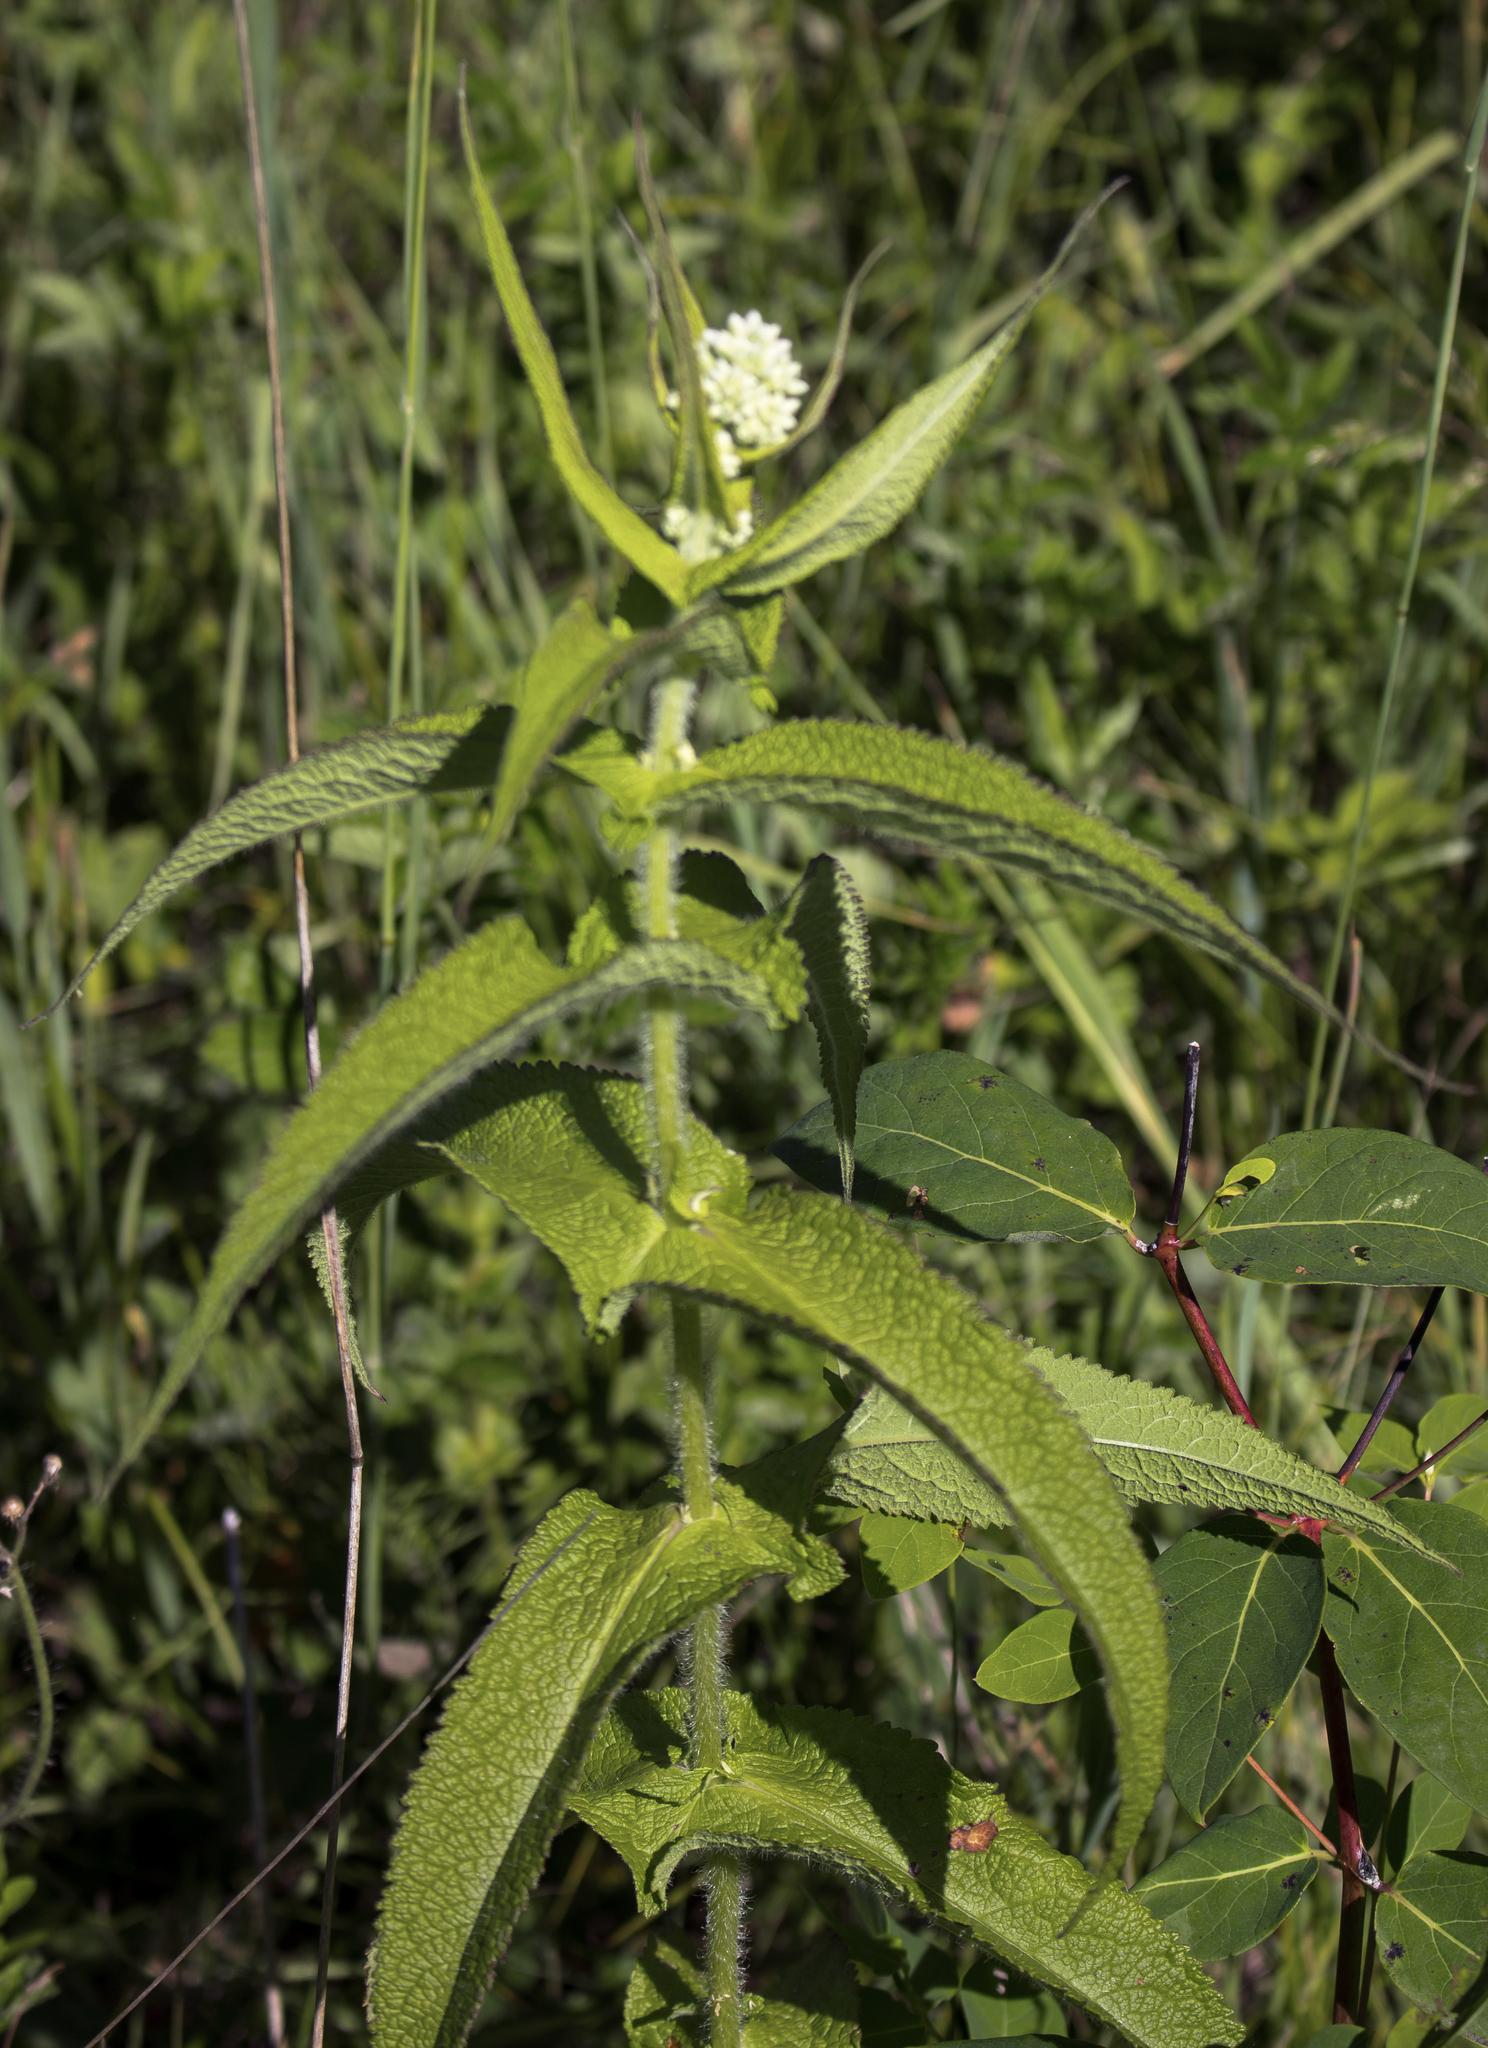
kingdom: Plantae
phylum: Tracheophyta
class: Magnoliopsida
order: Asterales
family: Asteraceae
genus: Eupatorium
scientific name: Eupatorium perfoliatum
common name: Boneset
